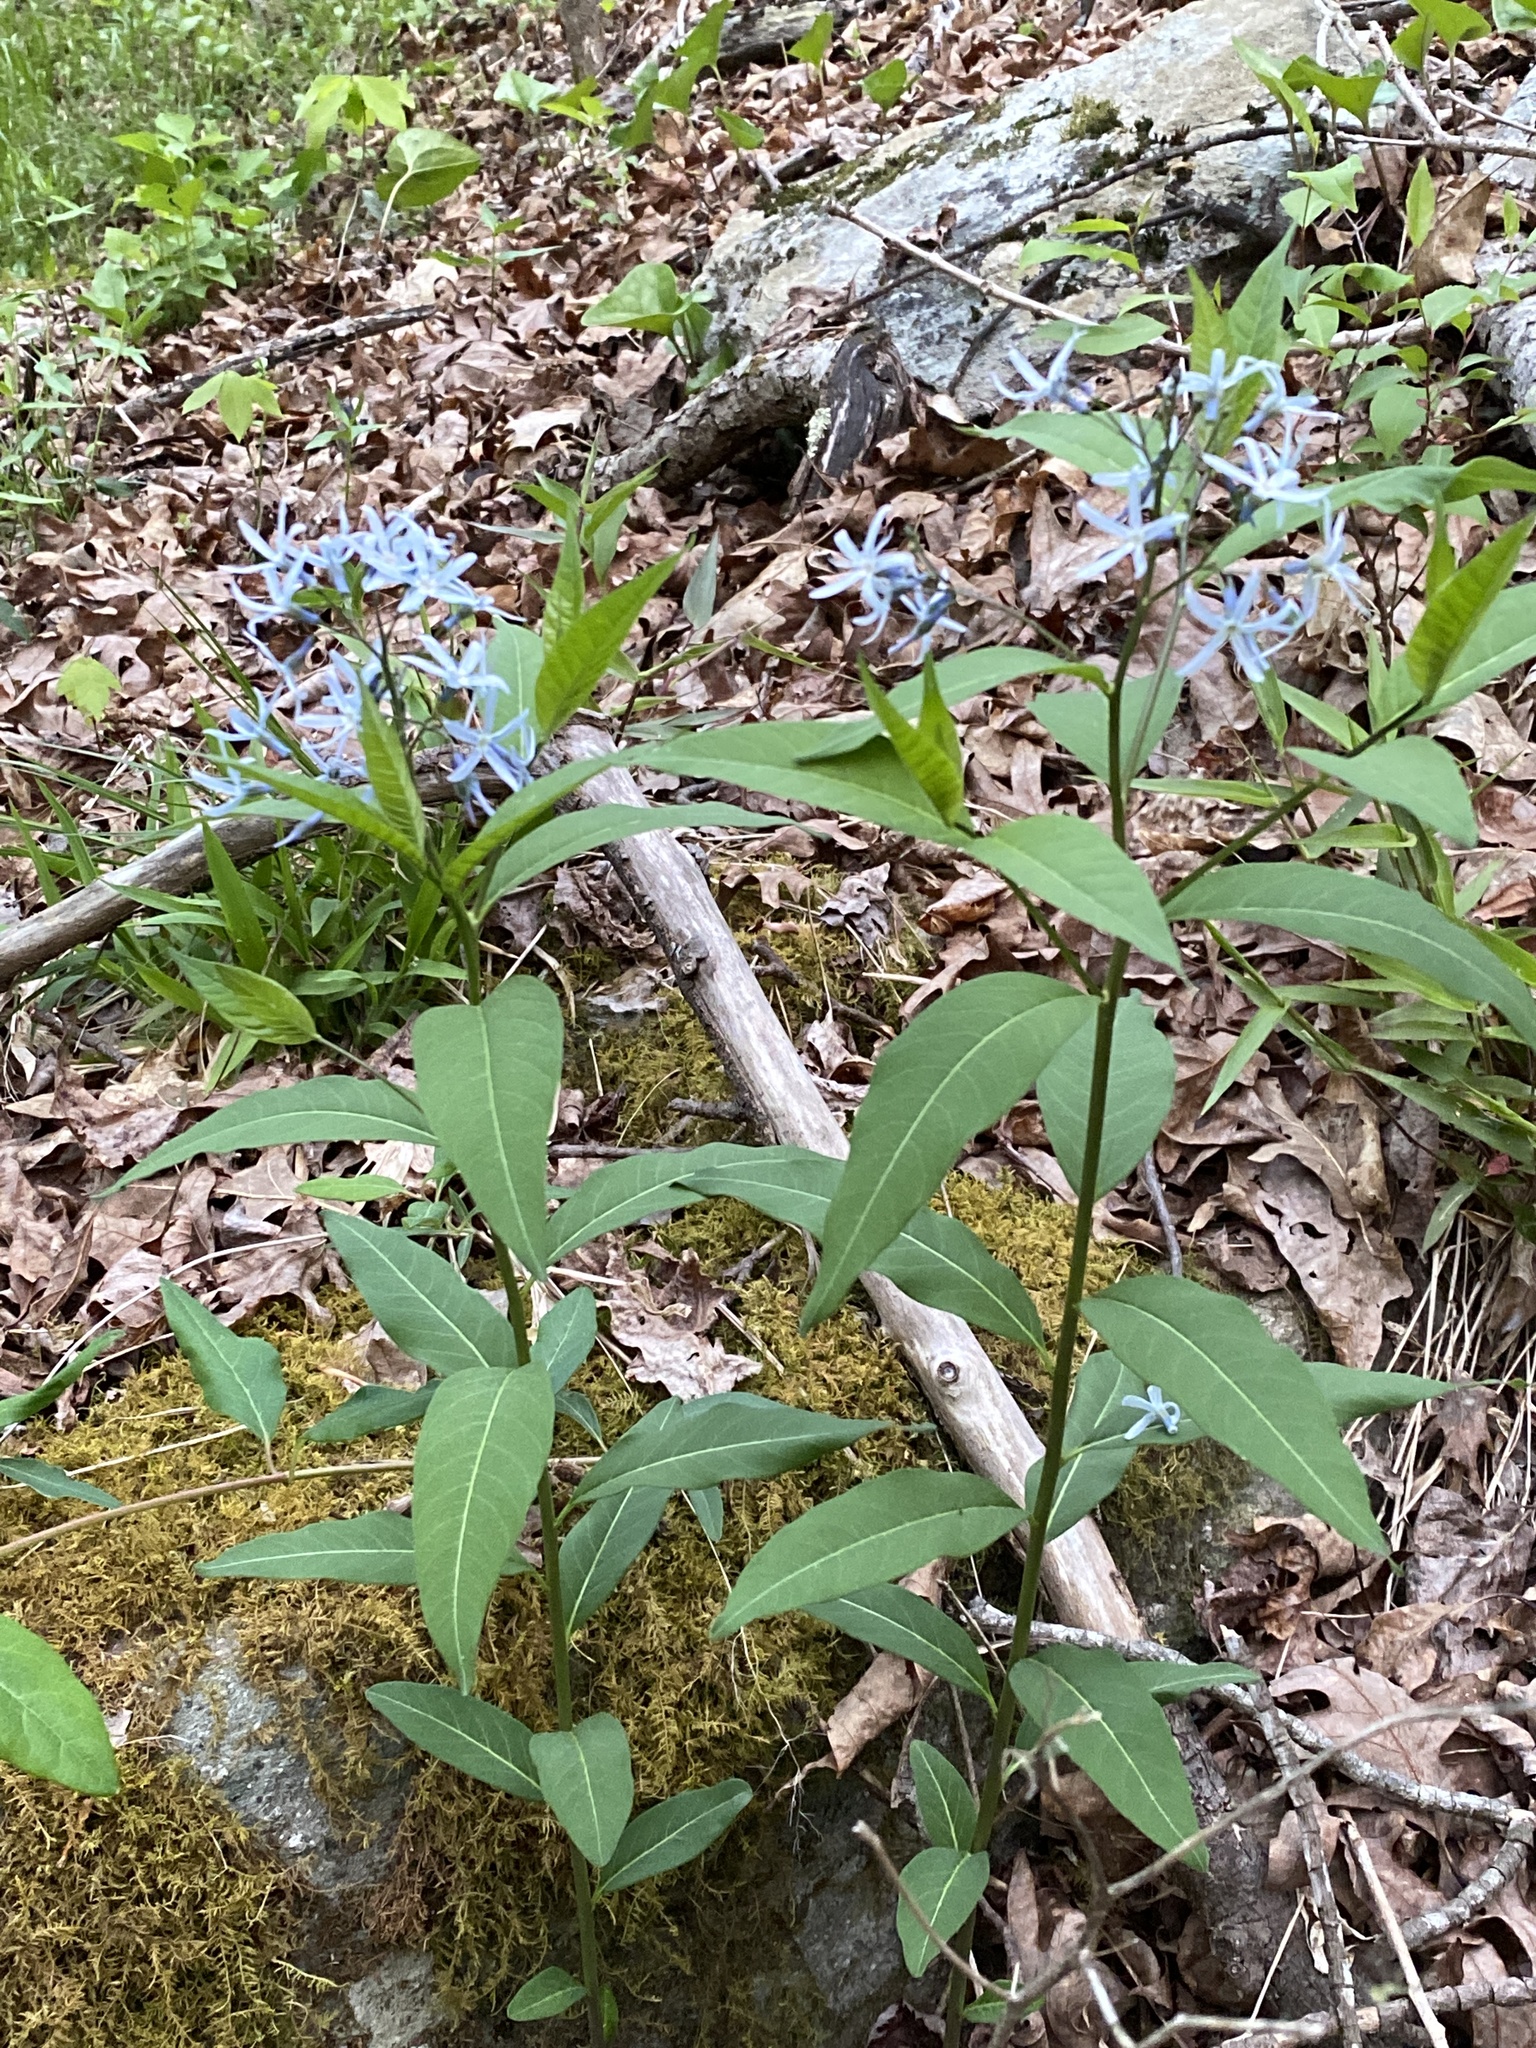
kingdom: Plantae
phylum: Tracheophyta
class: Magnoliopsida
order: Gentianales
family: Apocynaceae
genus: Amsonia
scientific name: Amsonia tabernaemontana
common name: Texas-star
